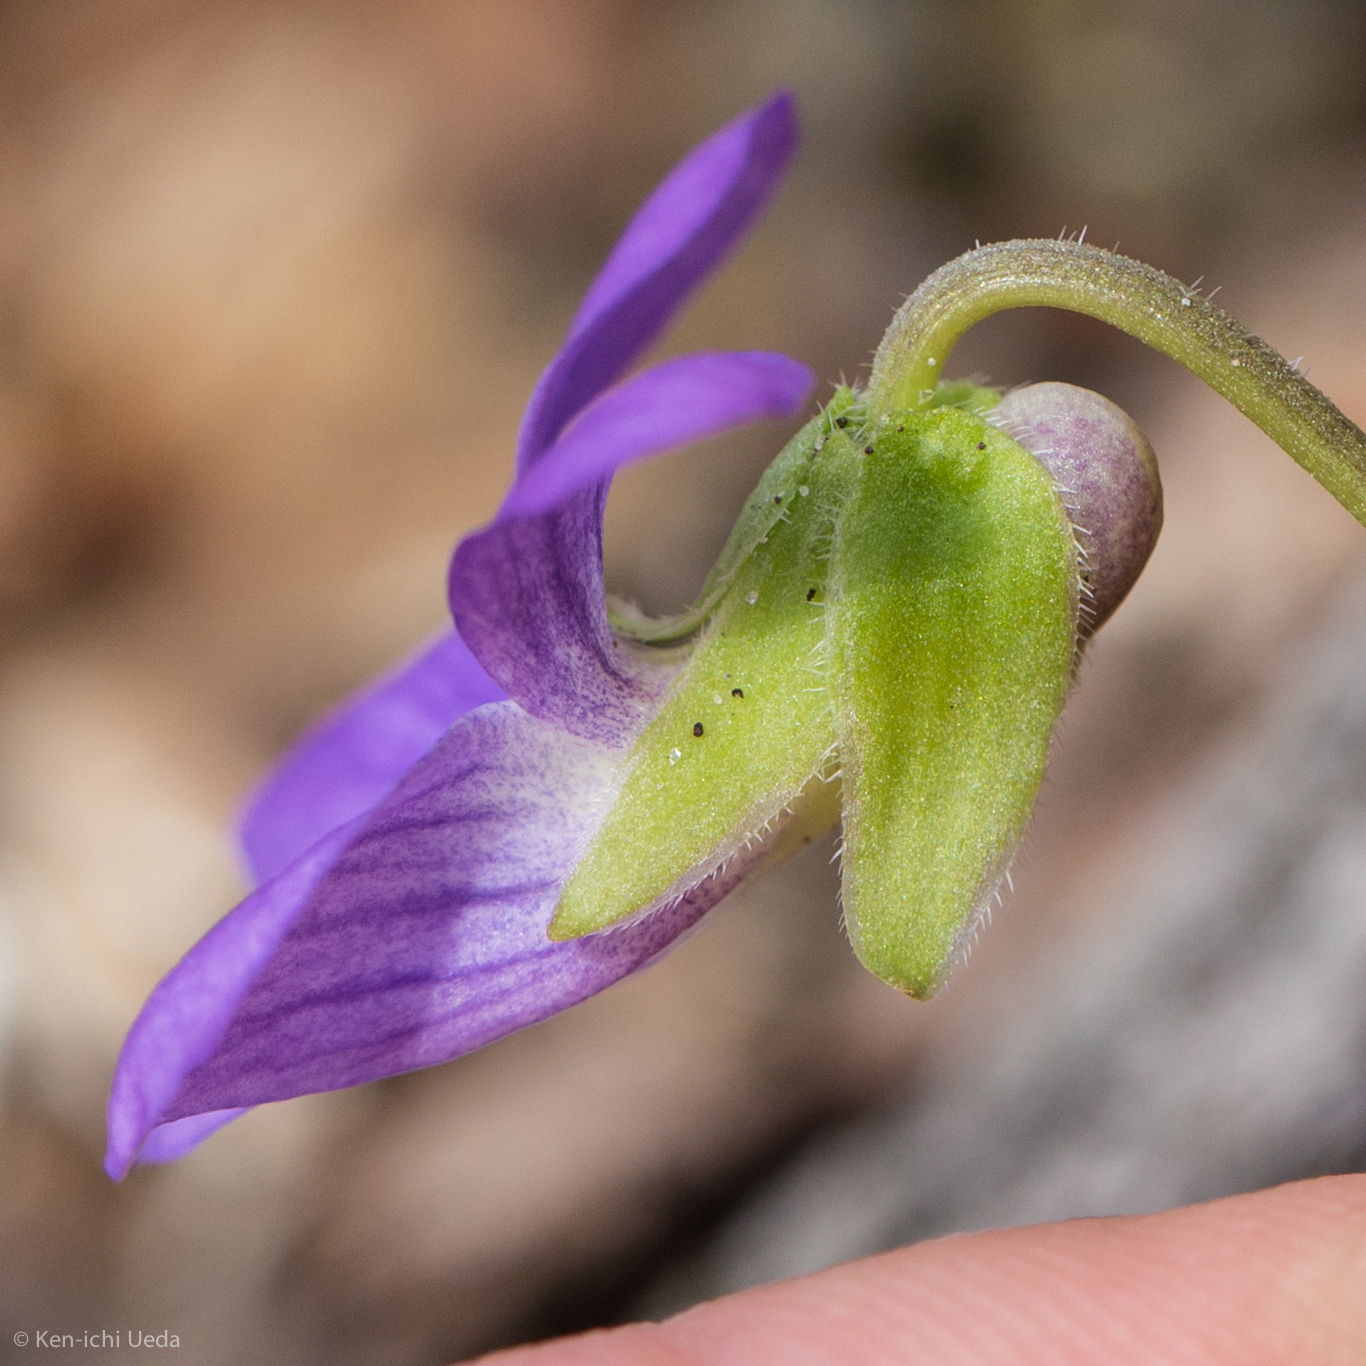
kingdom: Plantae
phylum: Tracheophyta
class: Magnoliopsida
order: Malpighiales
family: Violaceae
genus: Viola
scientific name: Viola sororia
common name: Dooryard violet
